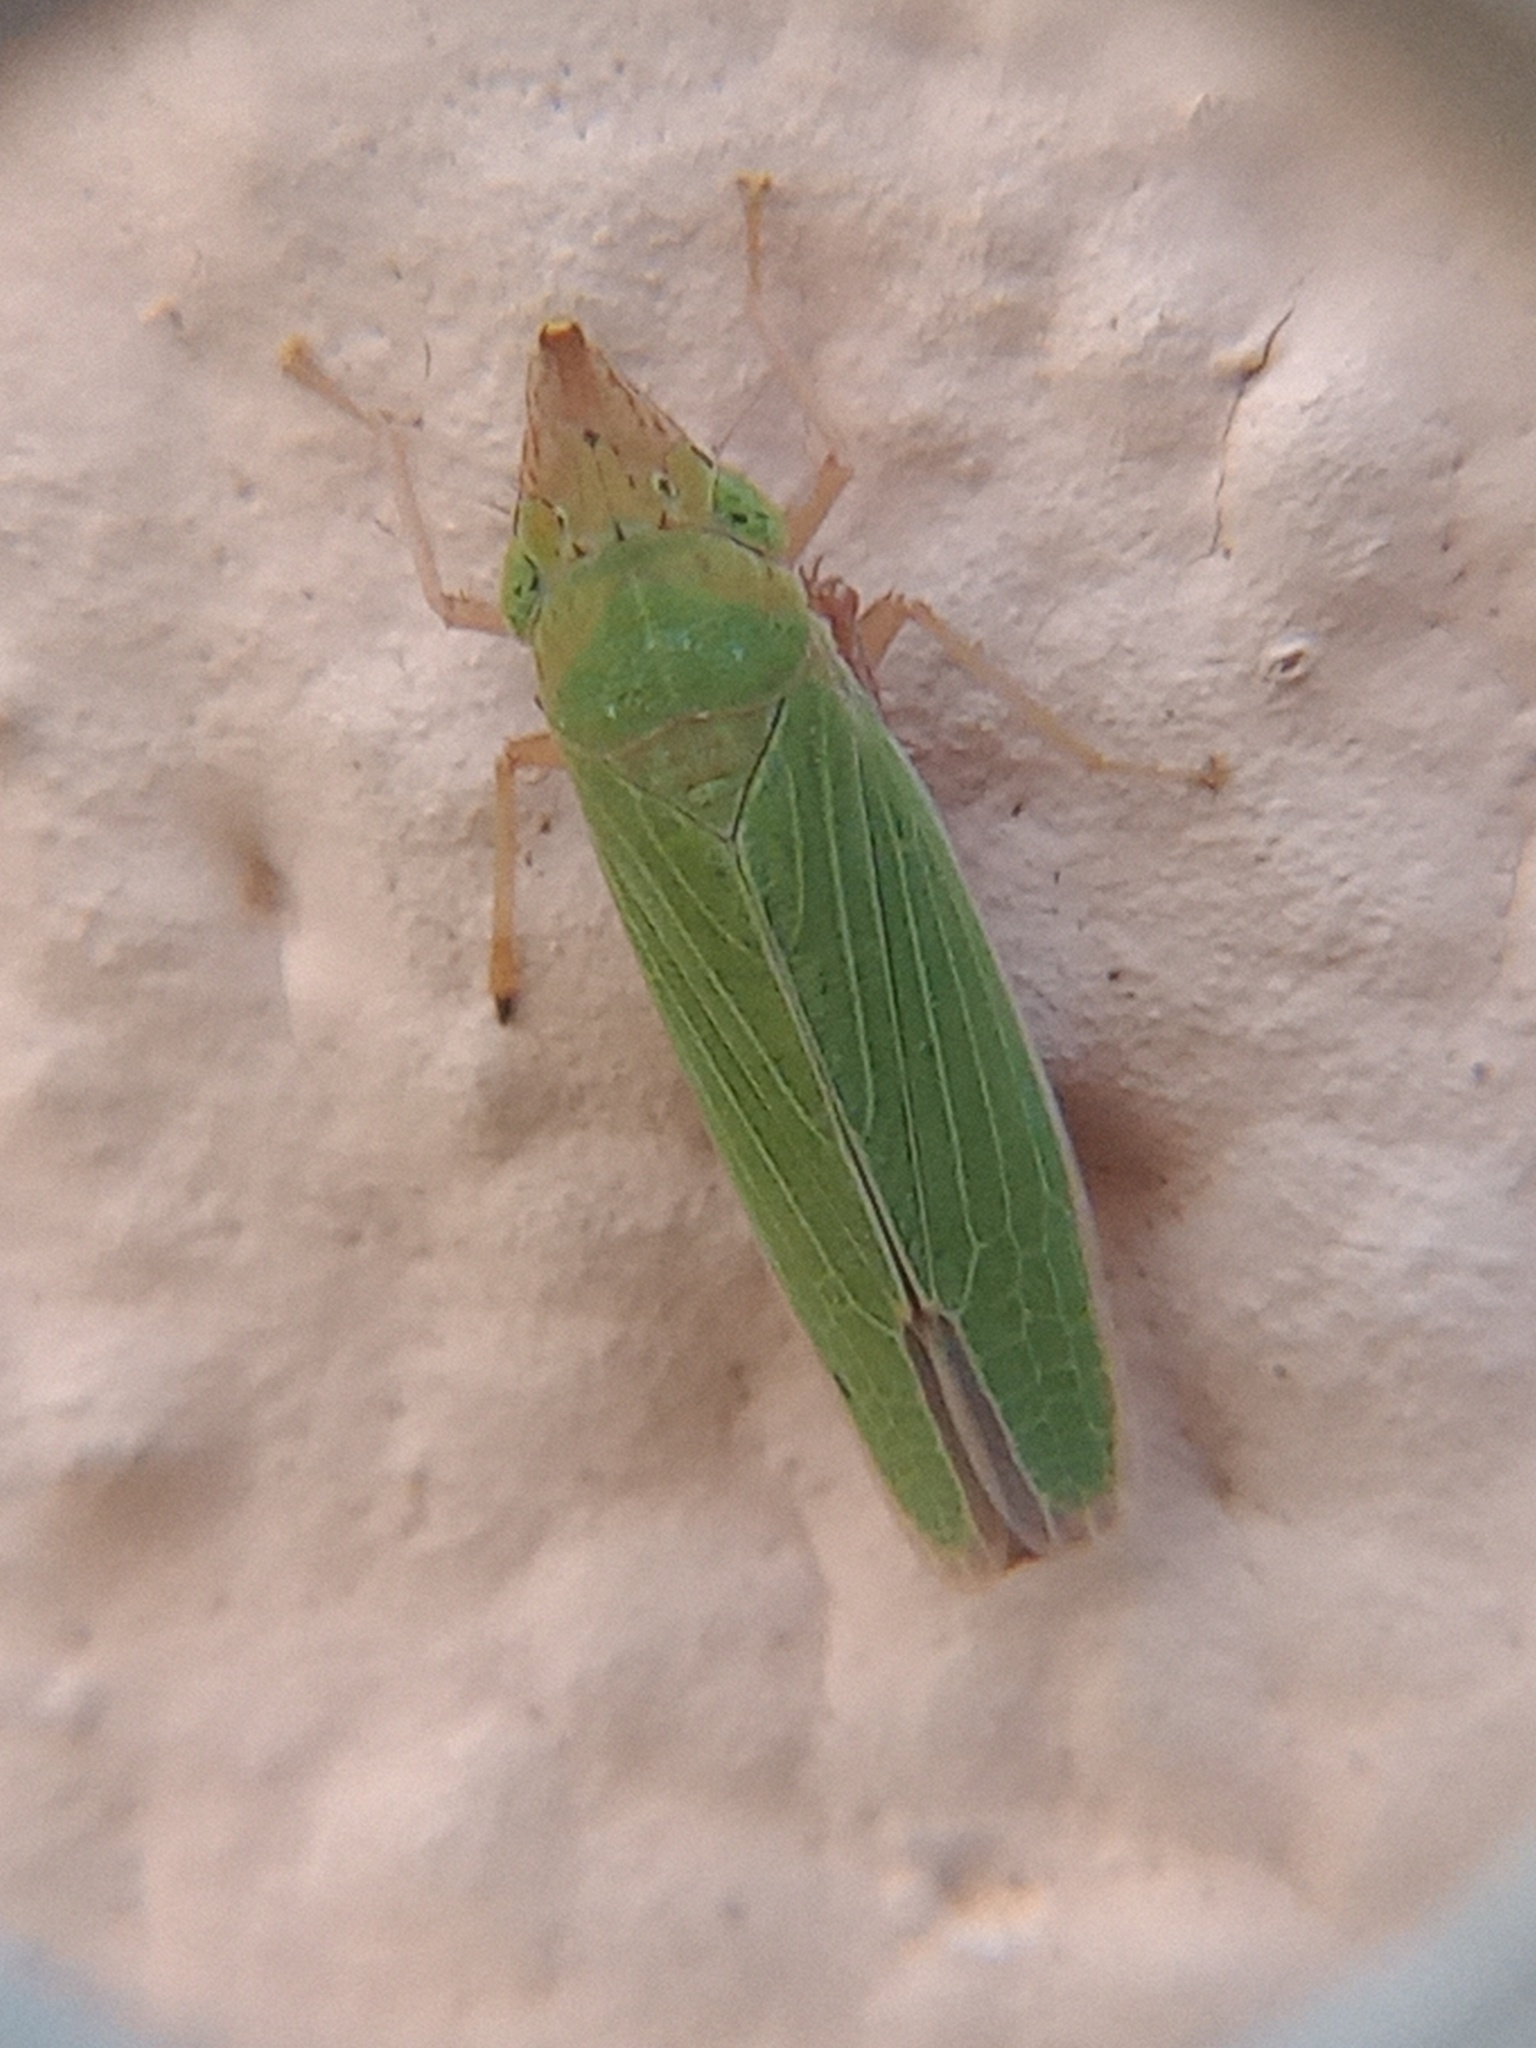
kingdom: Animalia
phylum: Arthropoda
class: Insecta
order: Hemiptera
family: Cicadellidae
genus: Draeculacephala
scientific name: Draeculacephala soluta
